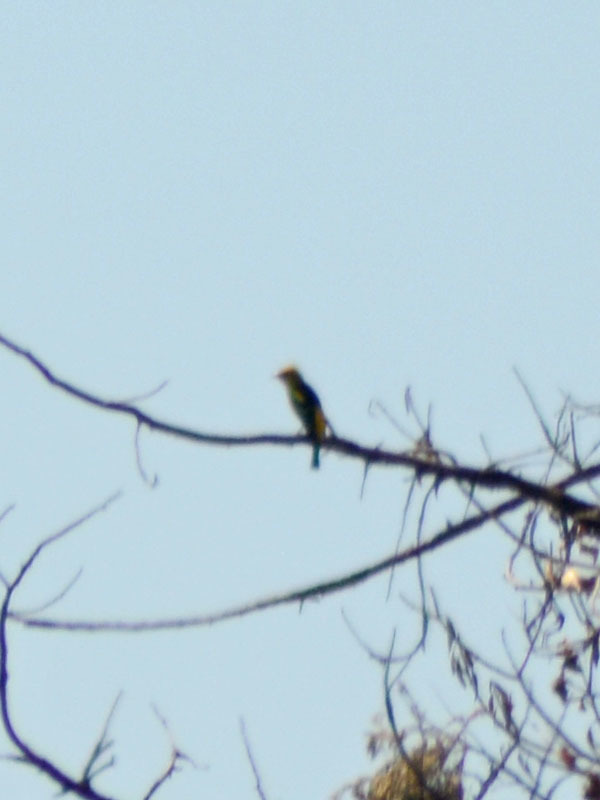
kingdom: Animalia
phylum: Chordata
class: Aves
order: Passeriformes
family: Cardinalidae
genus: Piranga
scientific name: Piranga ludoviciana
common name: Western tanager
